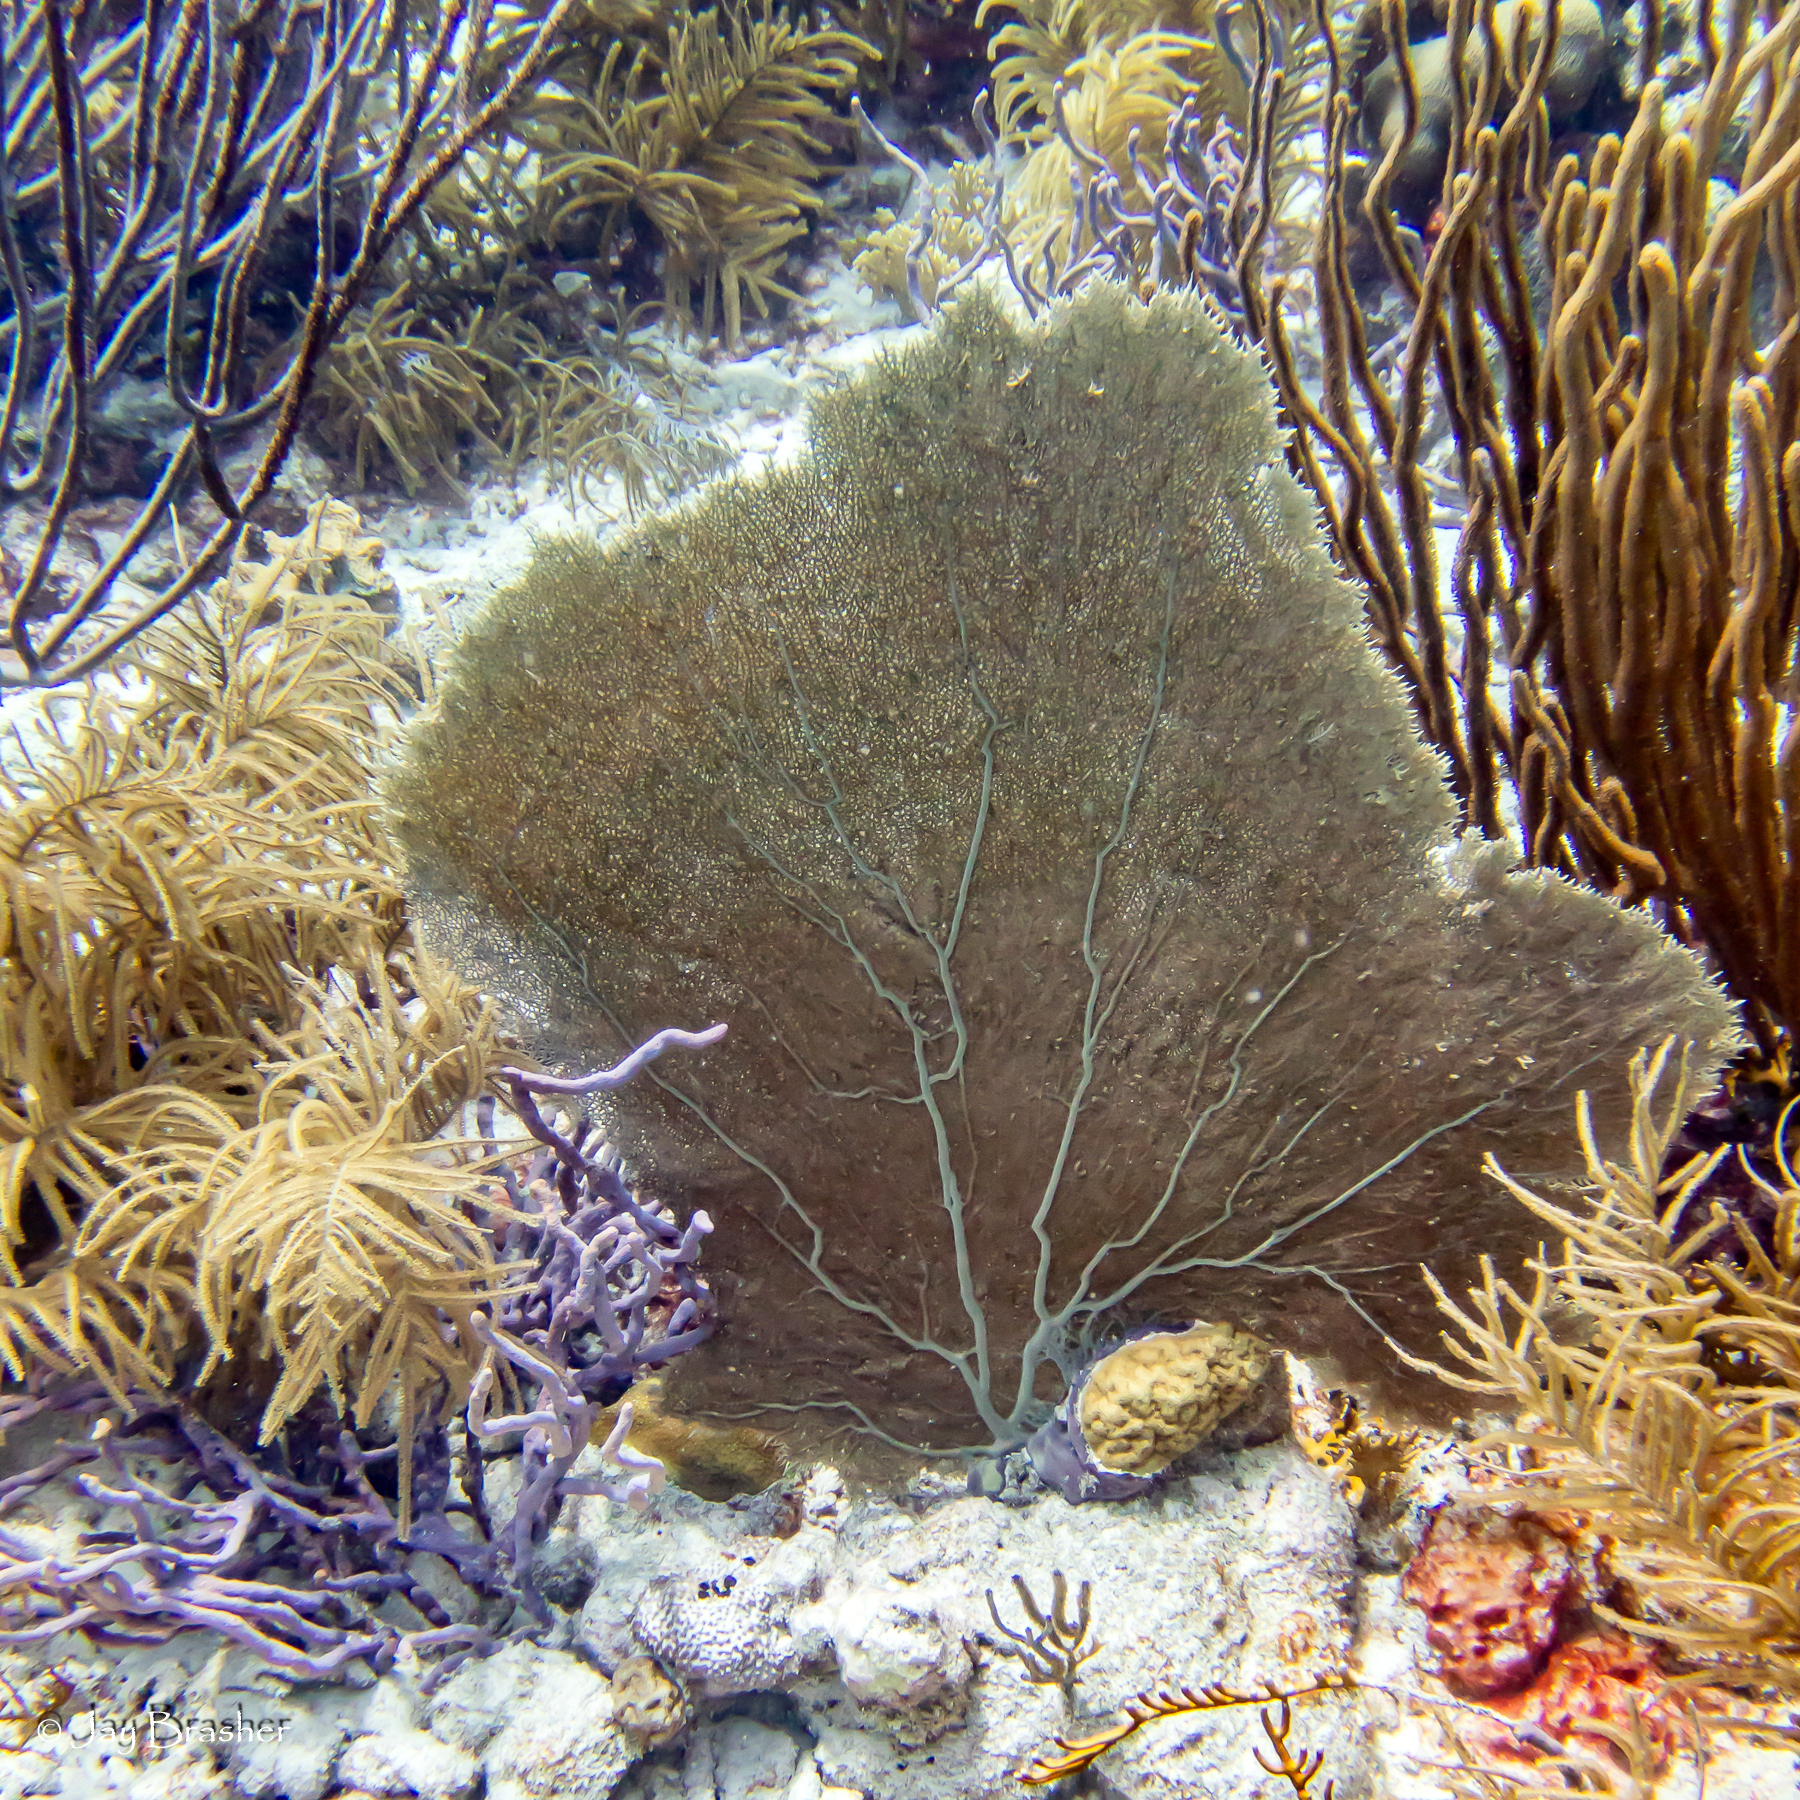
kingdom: Animalia
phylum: Porifera
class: Demospongiae
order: Verongiida
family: Aplysinidae
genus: Aplysina
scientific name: Aplysina cauliformis
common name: Branching candle sponge
